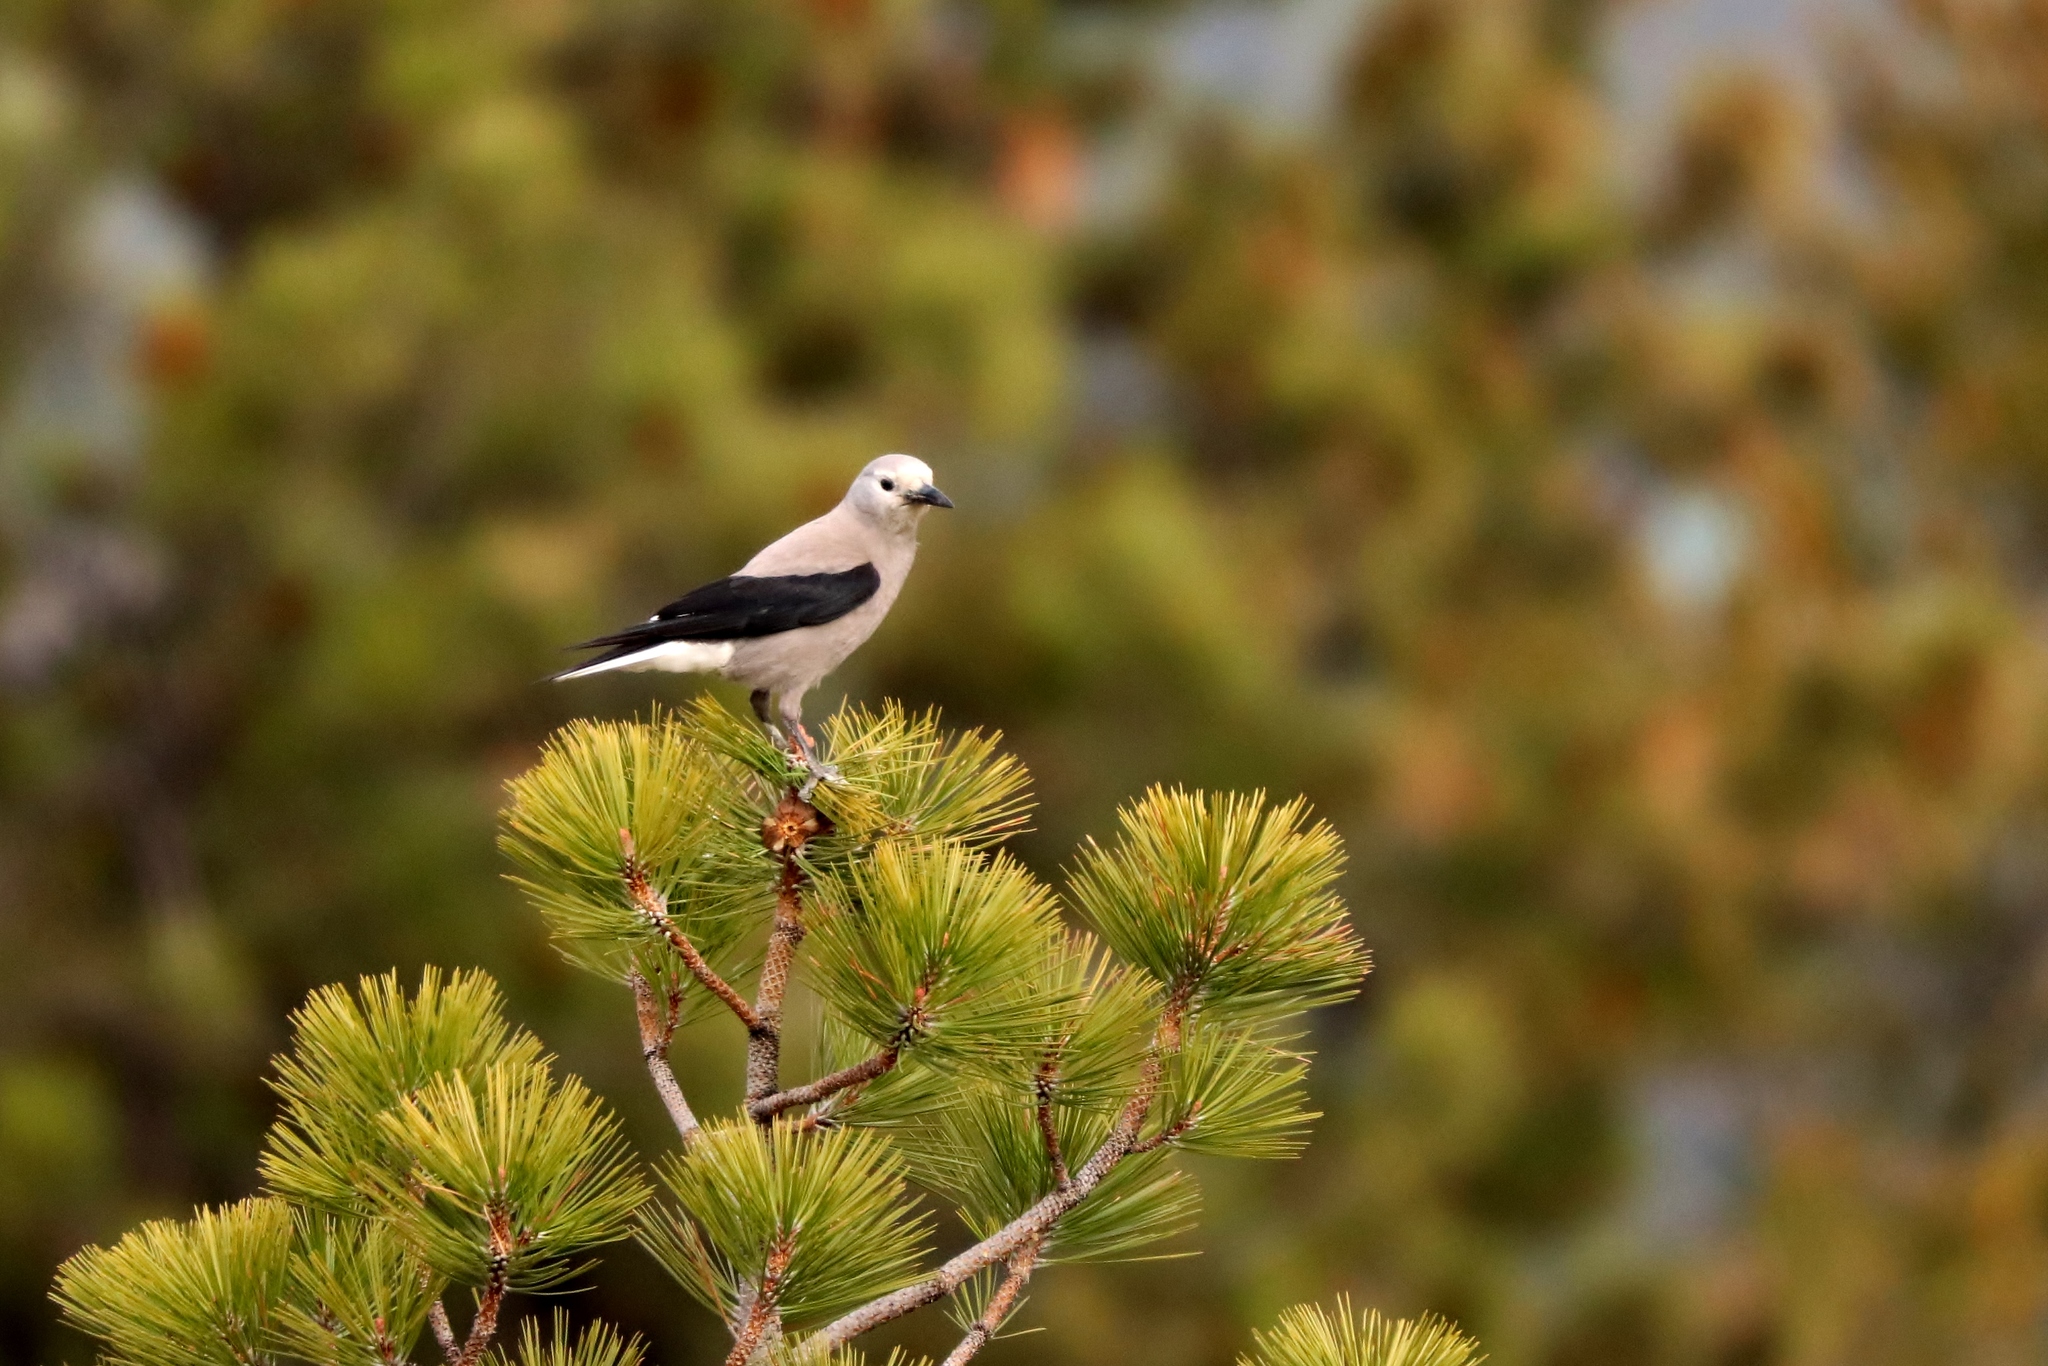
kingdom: Animalia
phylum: Chordata
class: Aves
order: Passeriformes
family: Corvidae
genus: Nucifraga
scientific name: Nucifraga columbiana
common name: Clark's nutcracker
